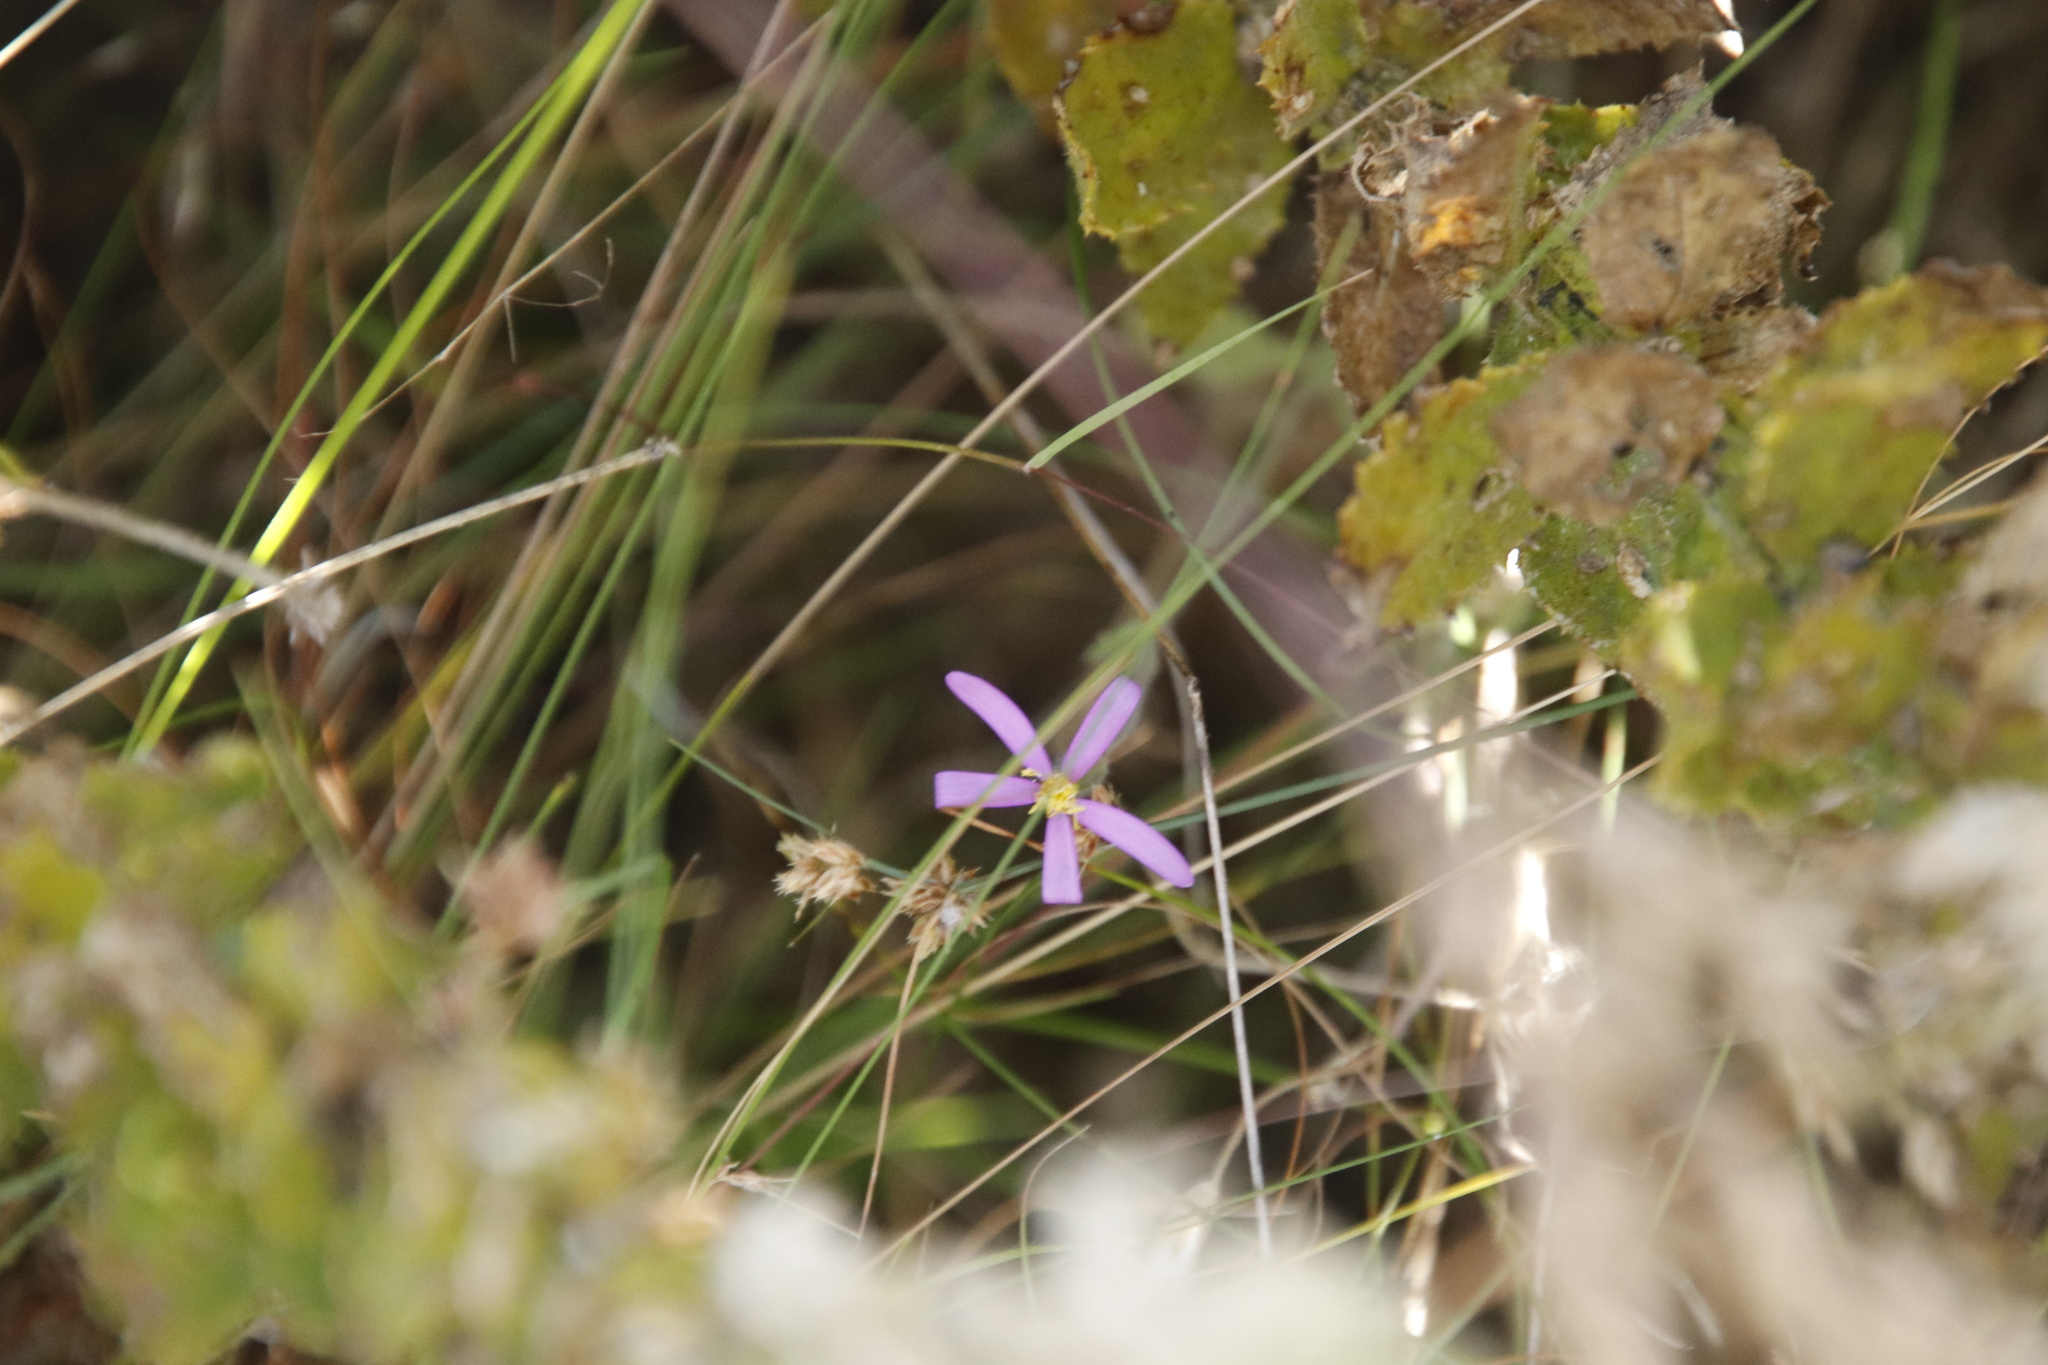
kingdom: Plantae
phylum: Tracheophyta
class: Magnoliopsida
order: Asterales
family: Asteraceae
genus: Senecio
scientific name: Senecio arenarius
